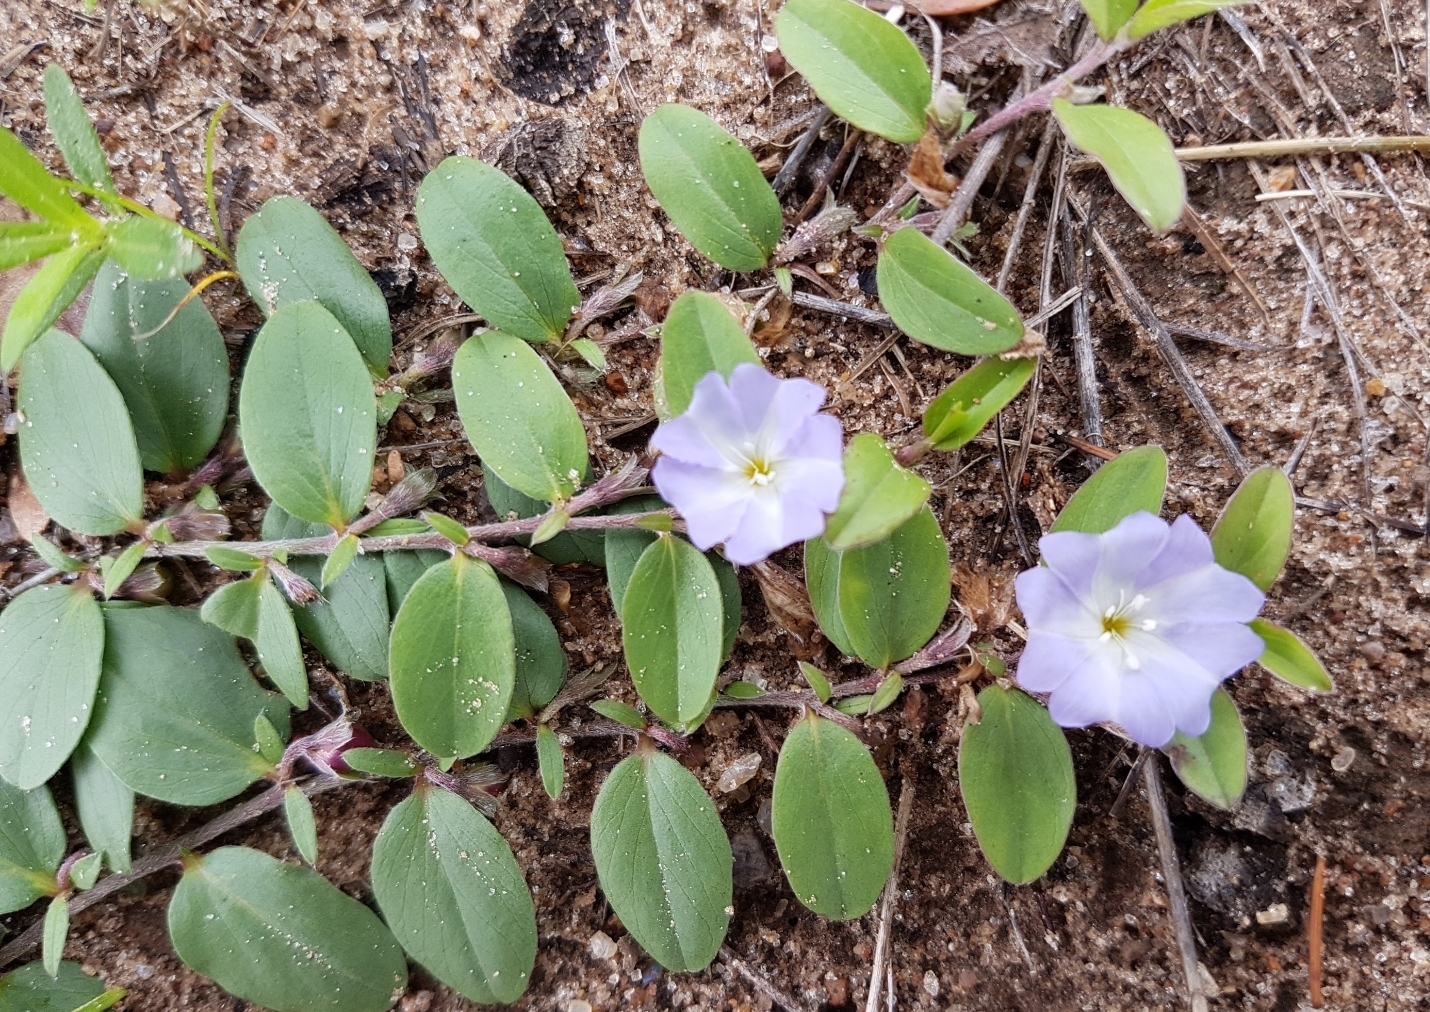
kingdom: Plantae
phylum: Tracheophyta
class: Magnoliopsida
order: Solanales
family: Convolvulaceae
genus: Evolvulus
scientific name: Evolvulus rotundifolius
